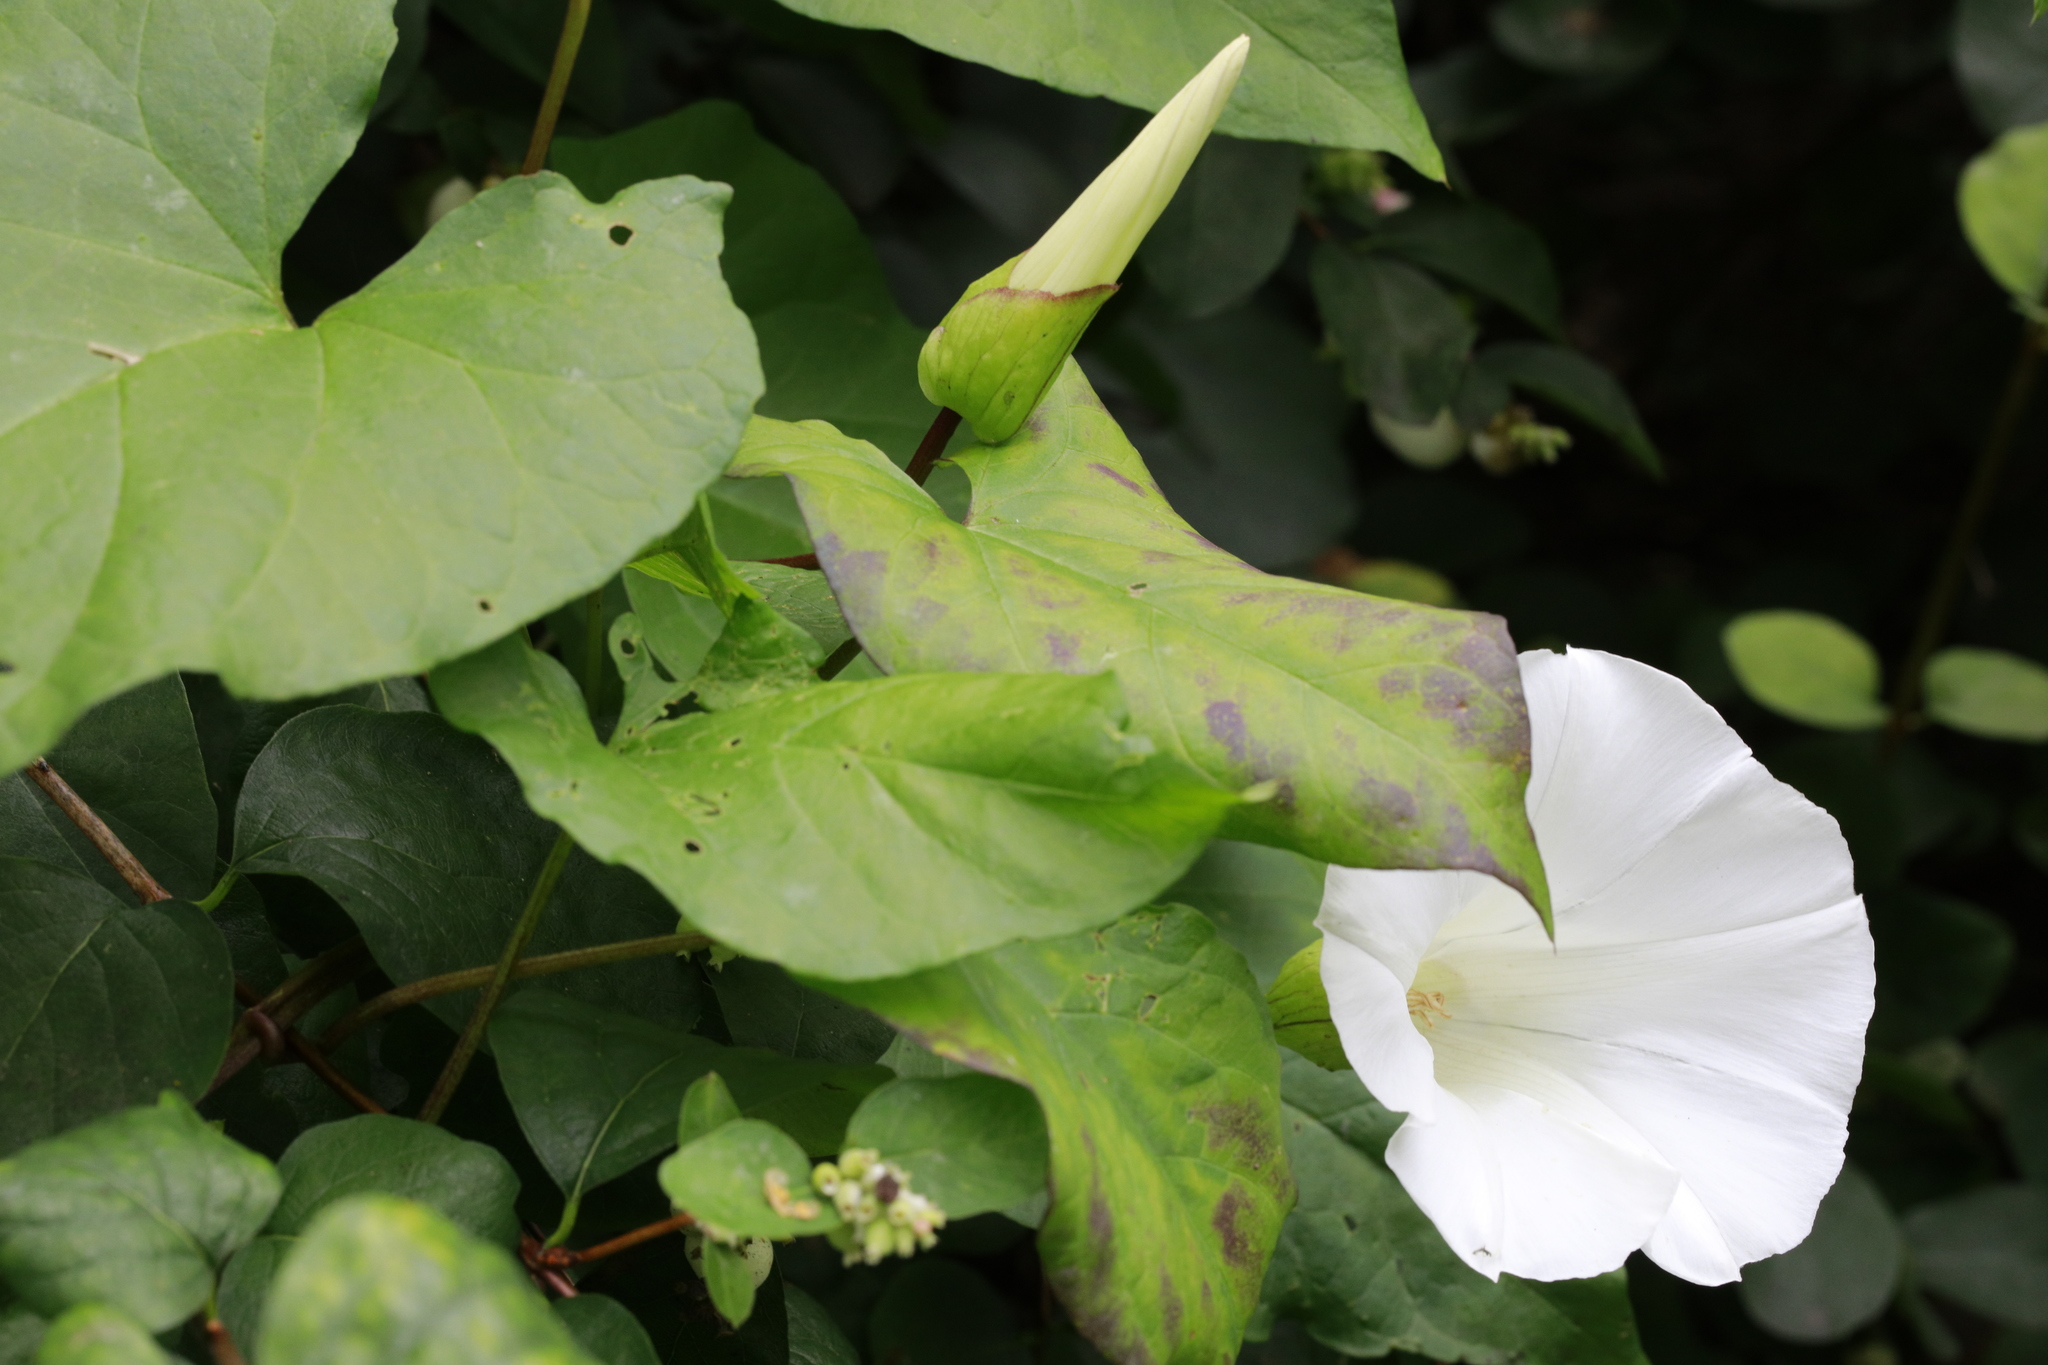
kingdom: Plantae
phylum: Tracheophyta
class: Magnoliopsida
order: Solanales
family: Convolvulaceae
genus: Calystegia
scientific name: Calystegia silvatica
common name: Large bindweed
